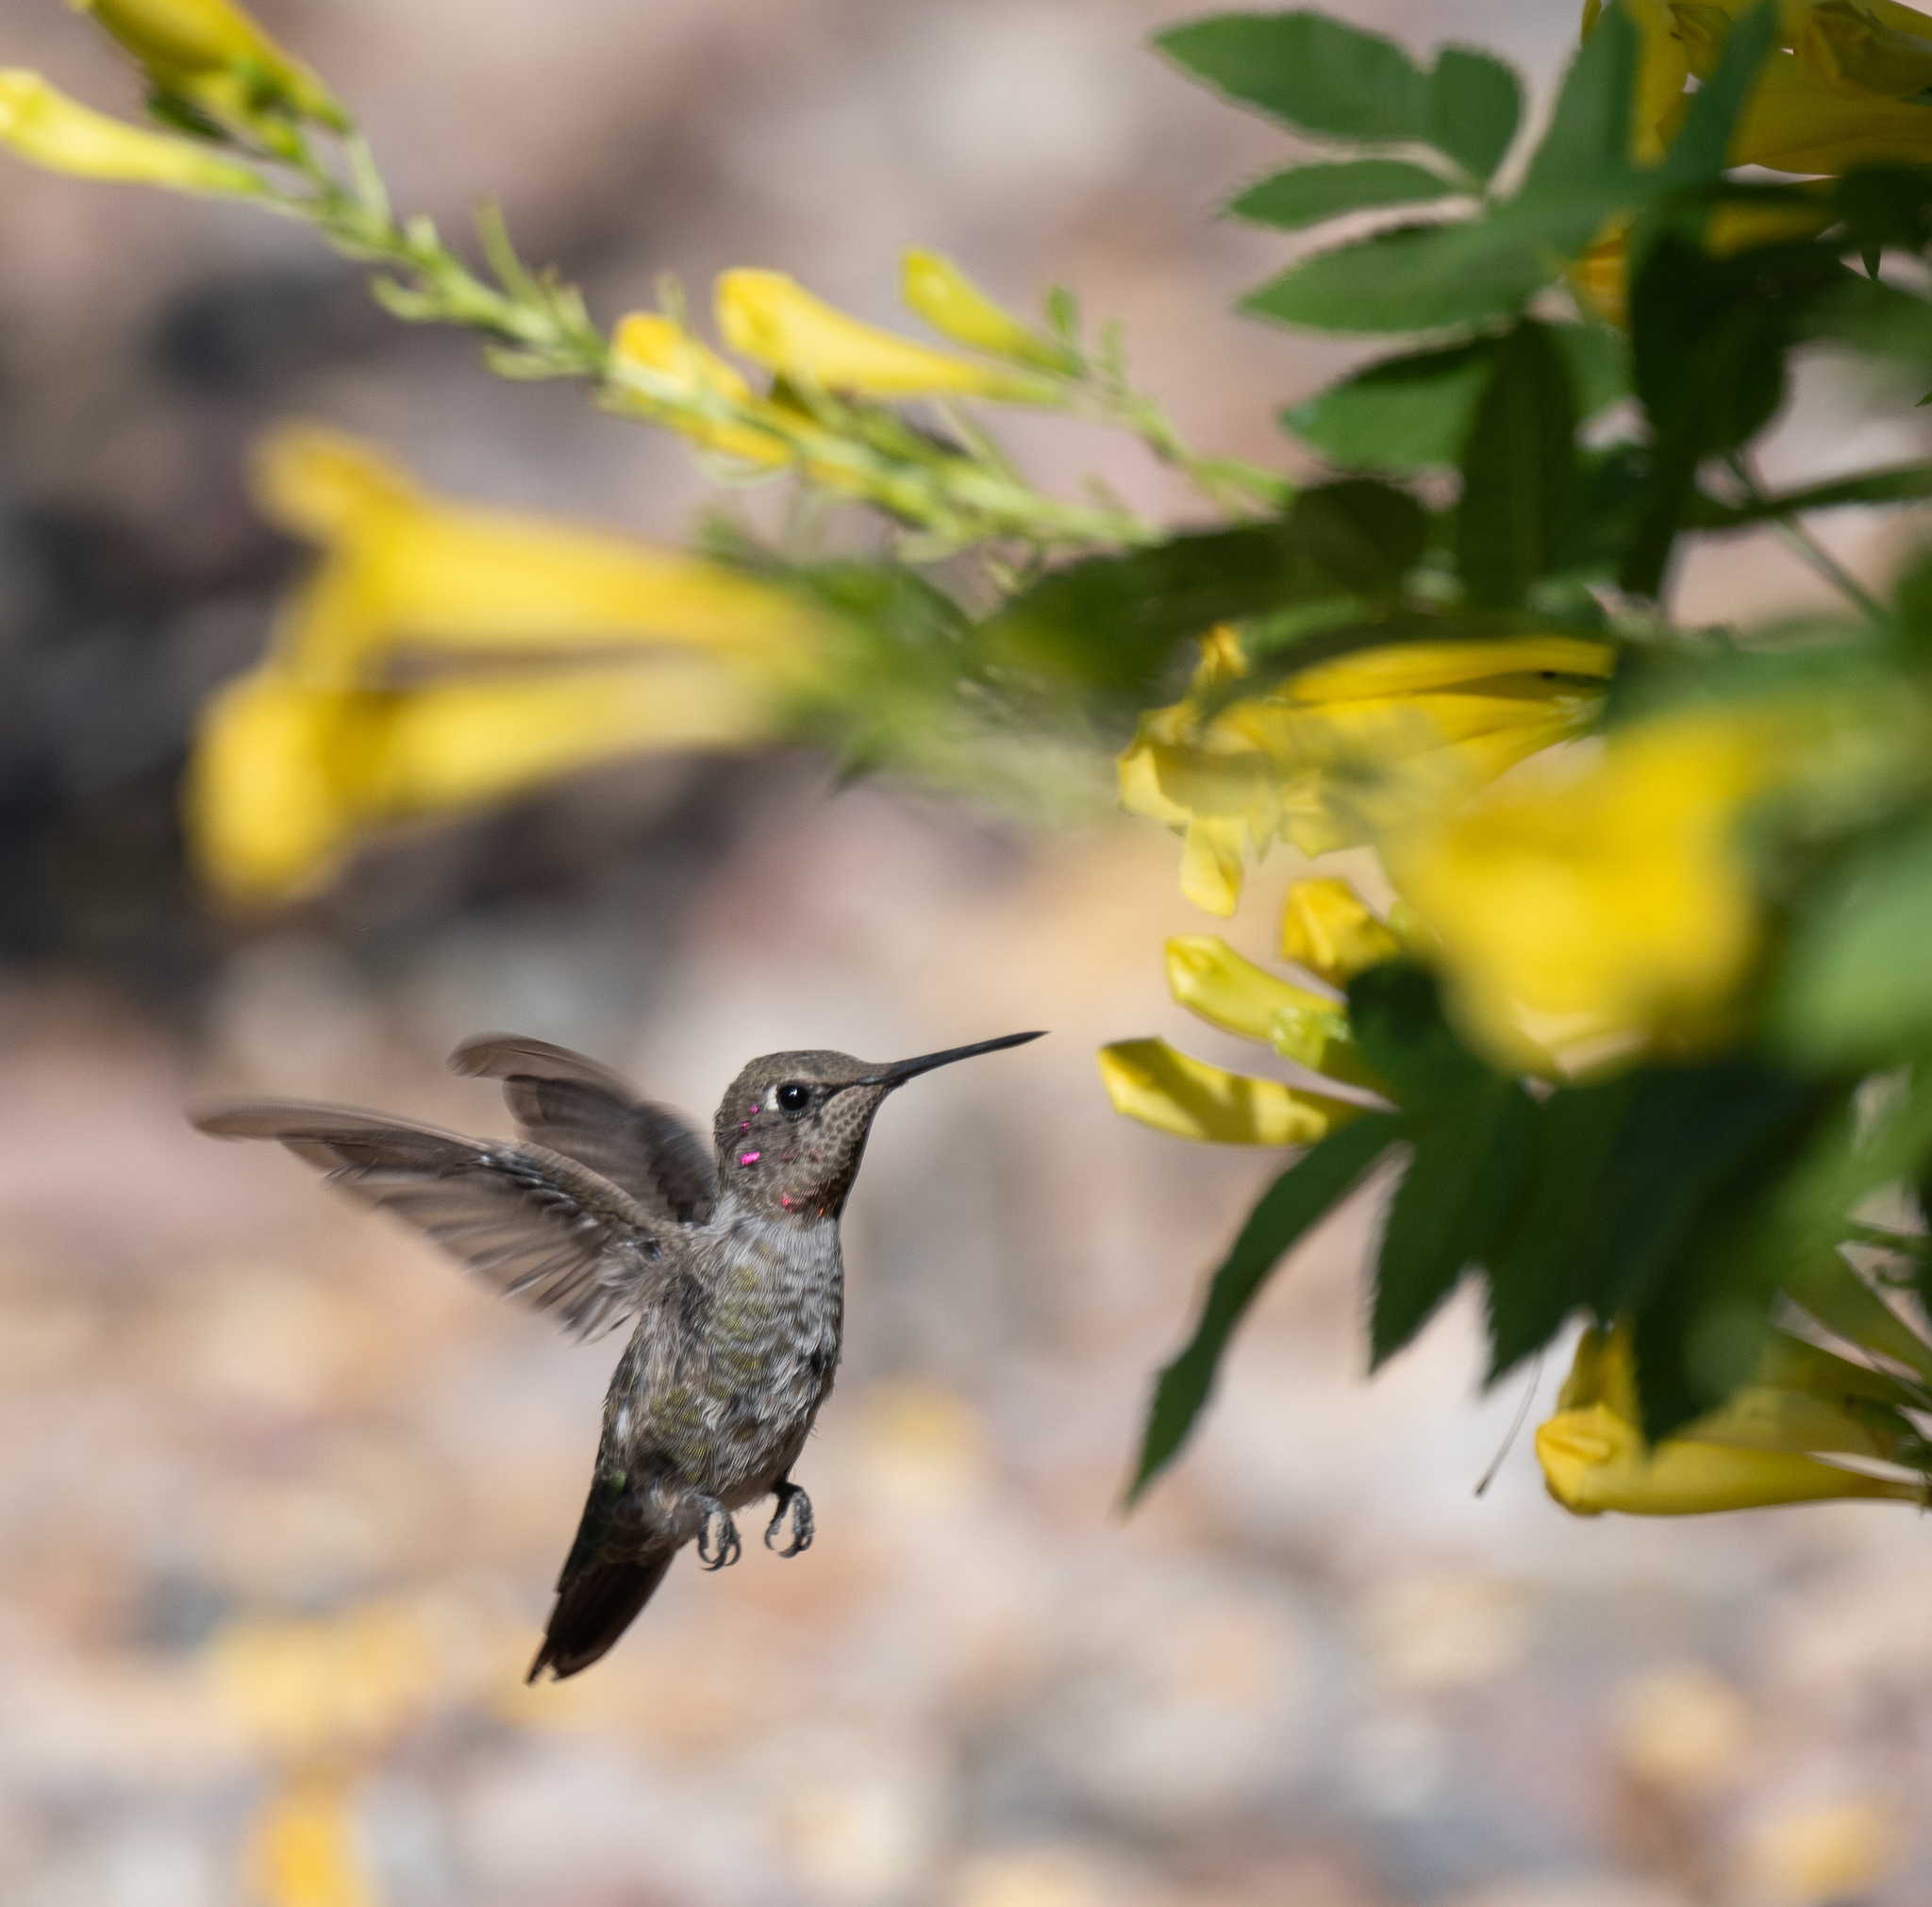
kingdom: Animalia
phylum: Chordata
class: Aves
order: Apodiformes
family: Trochilidae
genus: Calypte
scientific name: Calypte anna
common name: Anna's hummingbird
